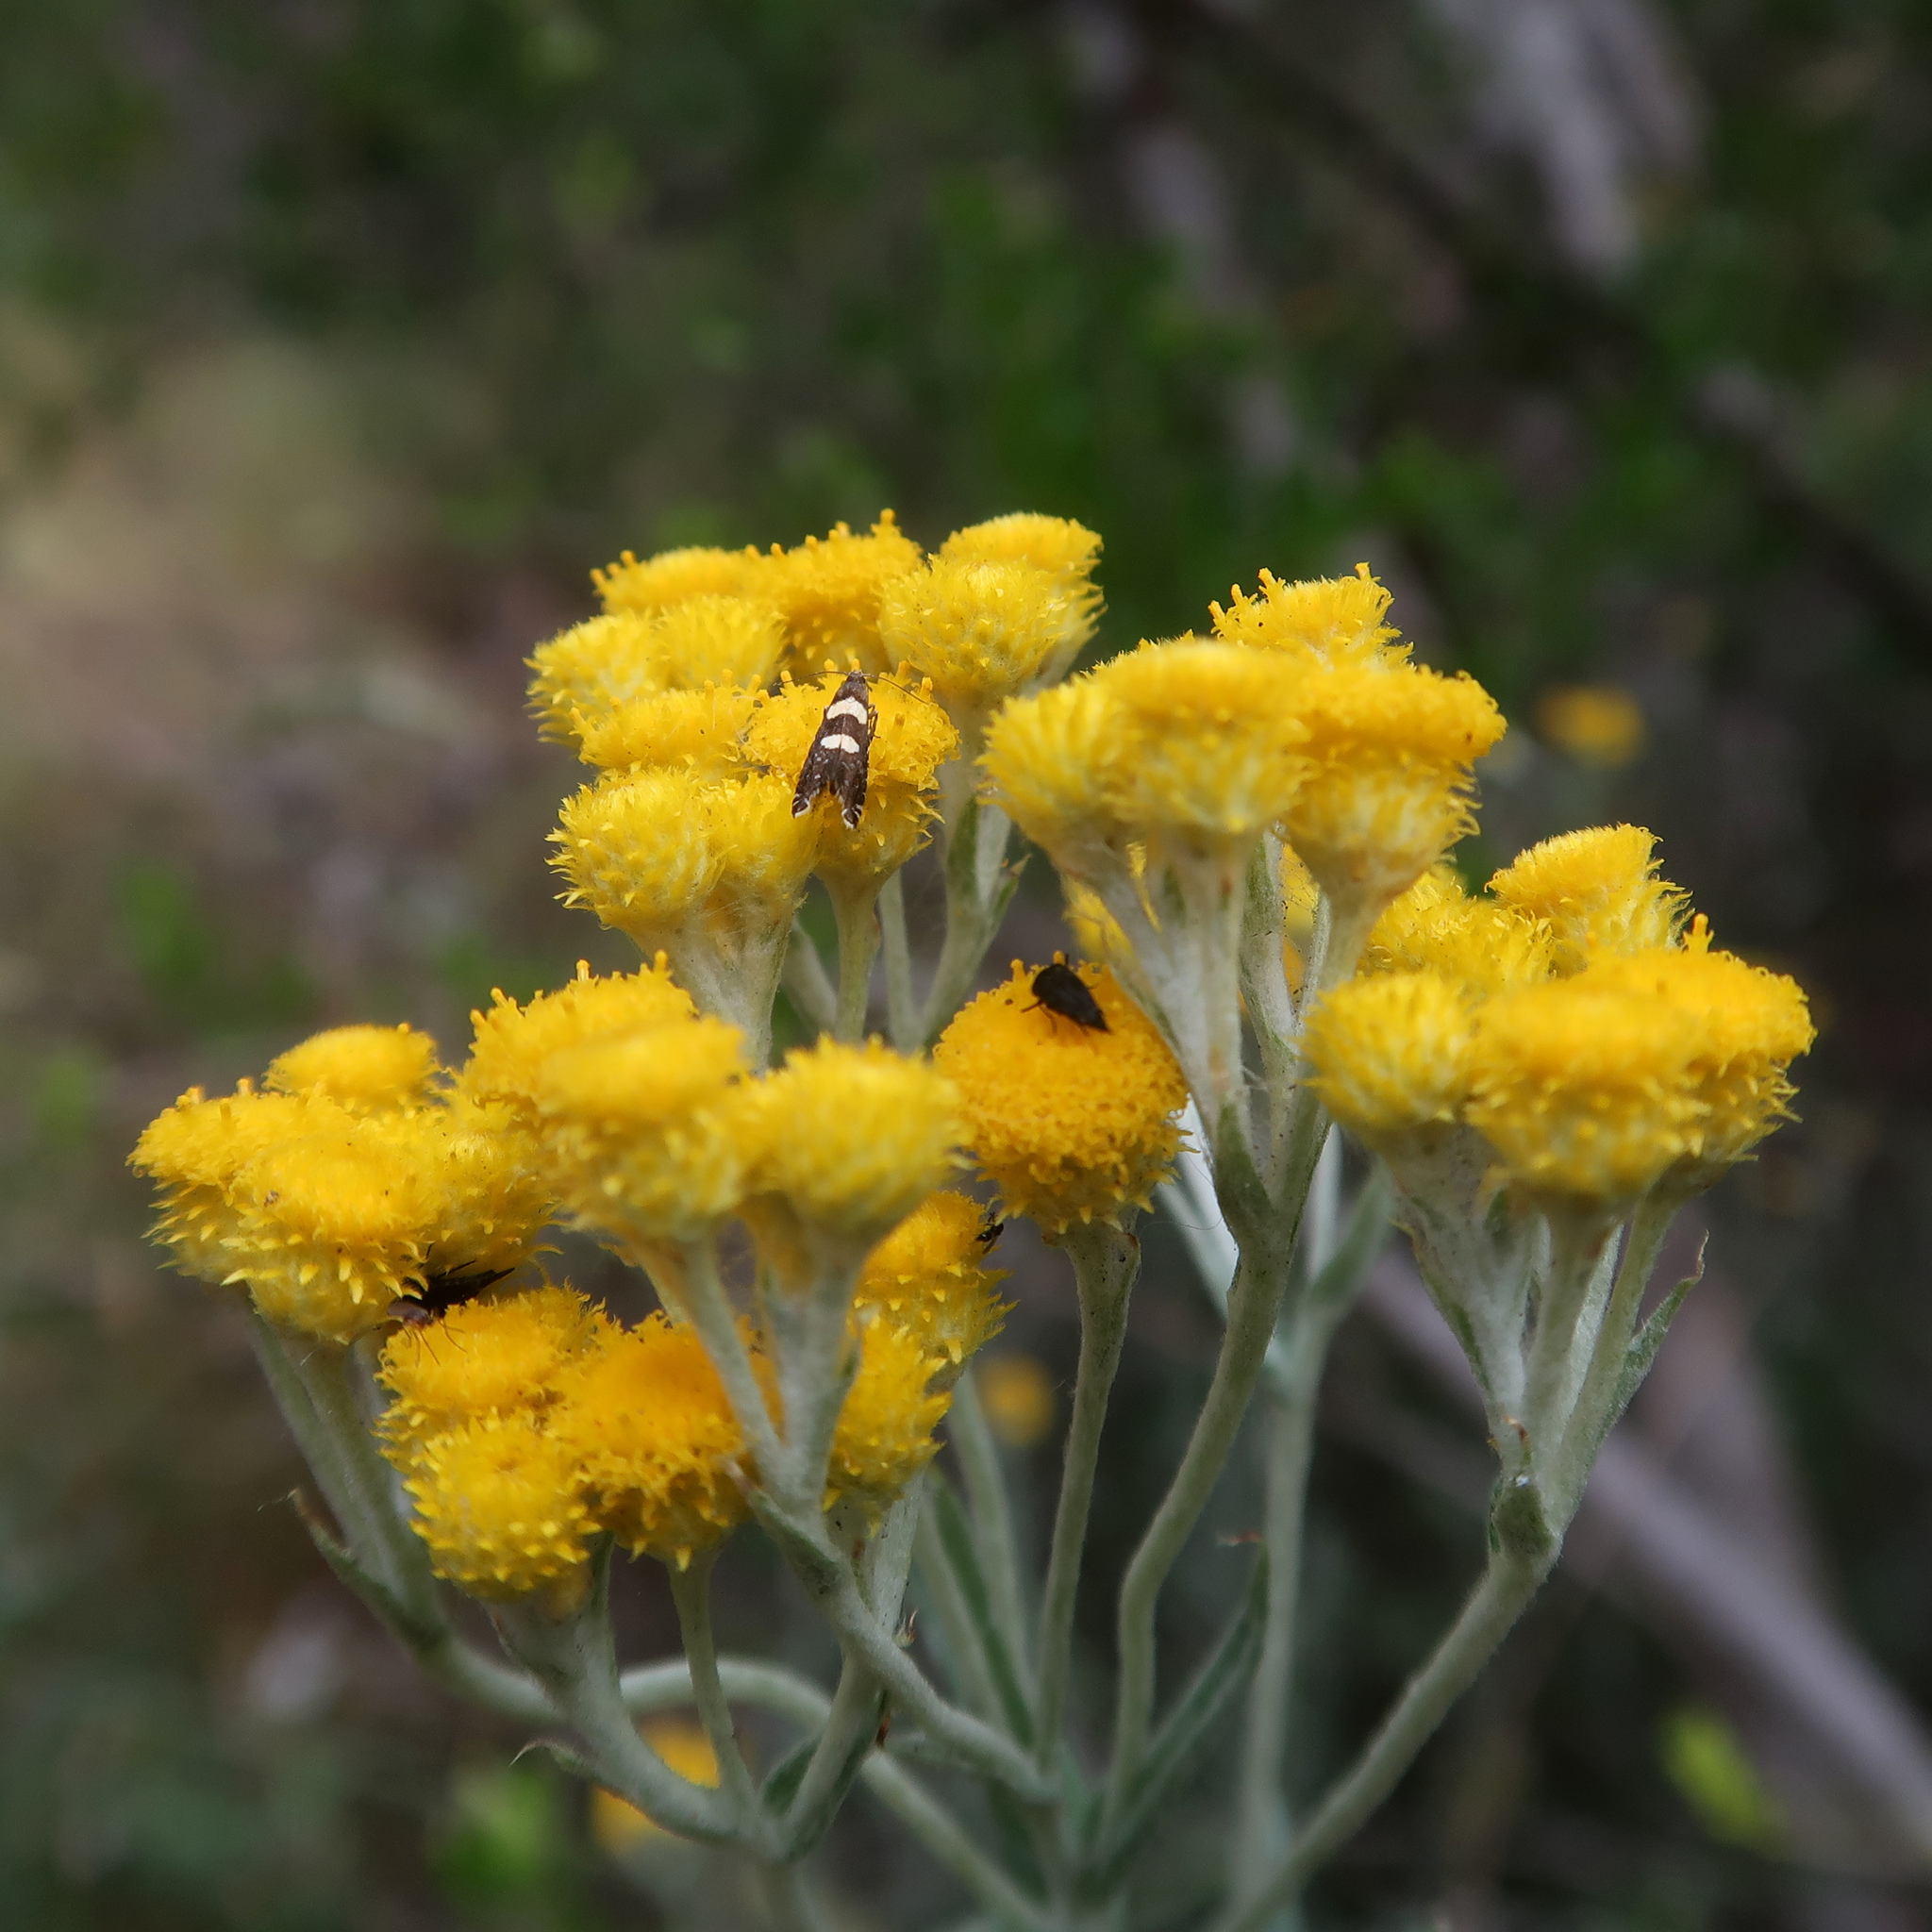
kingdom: Plantae
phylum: Tracheophyta
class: Magnoliopsida
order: Asterales
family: Asteraceae
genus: Chrysocephalum
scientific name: Chrysocephalum semipapposum
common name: Clustered everlasting
